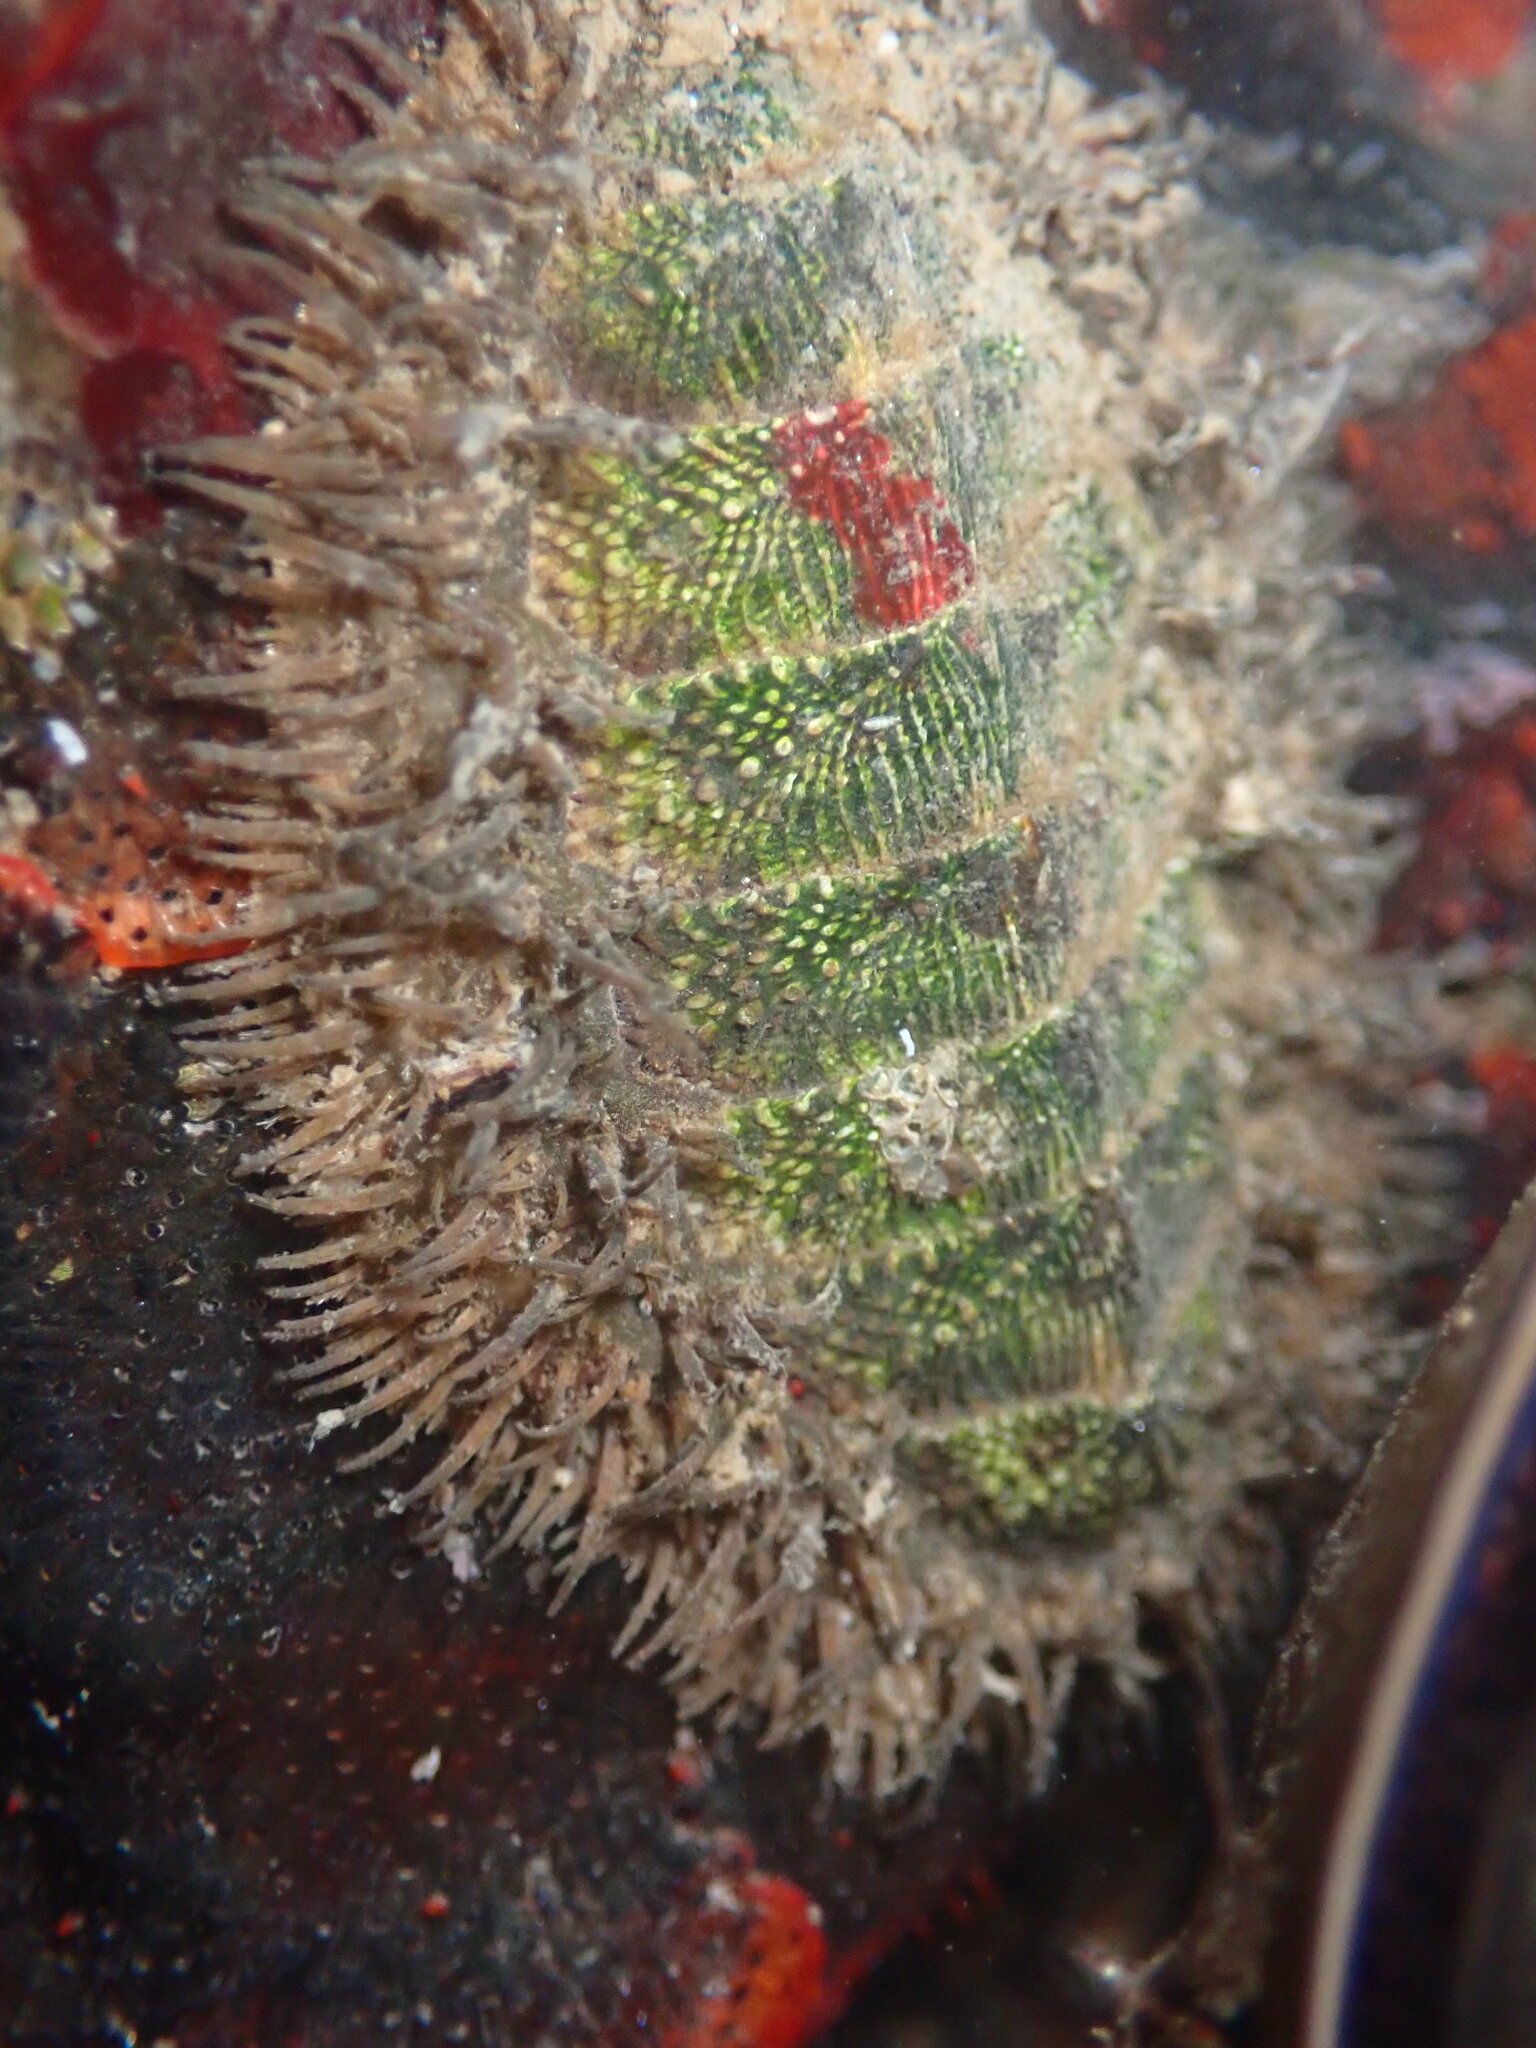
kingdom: Animalia
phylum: Mollusca
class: Polyplacophora
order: Chitonida
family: Mopaliidae
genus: Mopalia
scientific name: Mopalia muscosa
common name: Mossy chiton
